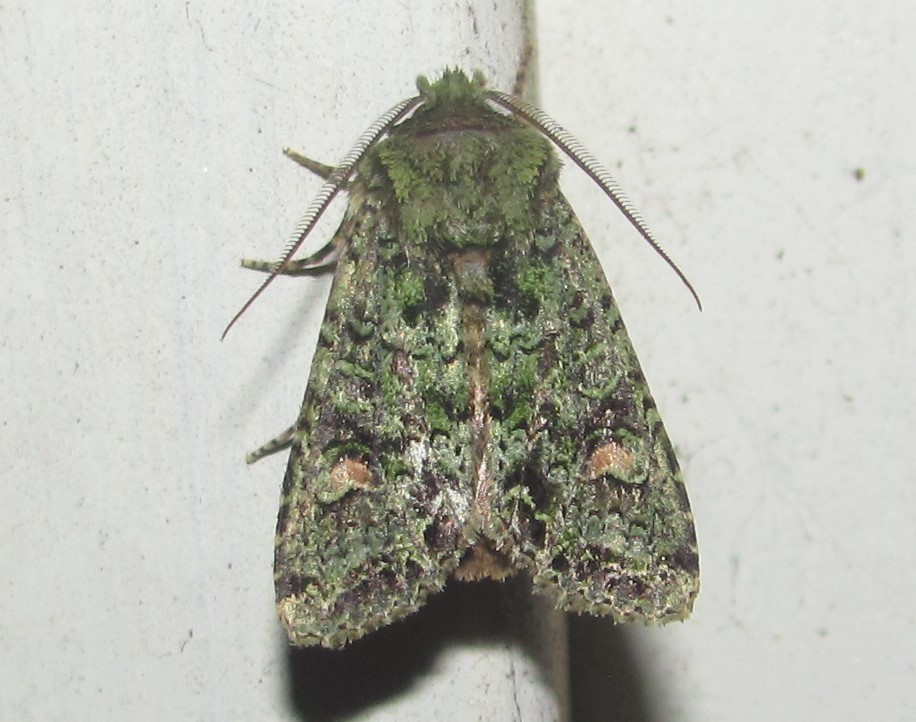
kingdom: Animalia
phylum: Arthropoda
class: Insecta
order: Lepidoptera
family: Noctuidae
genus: Ichneutica
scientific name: Ichneutica
